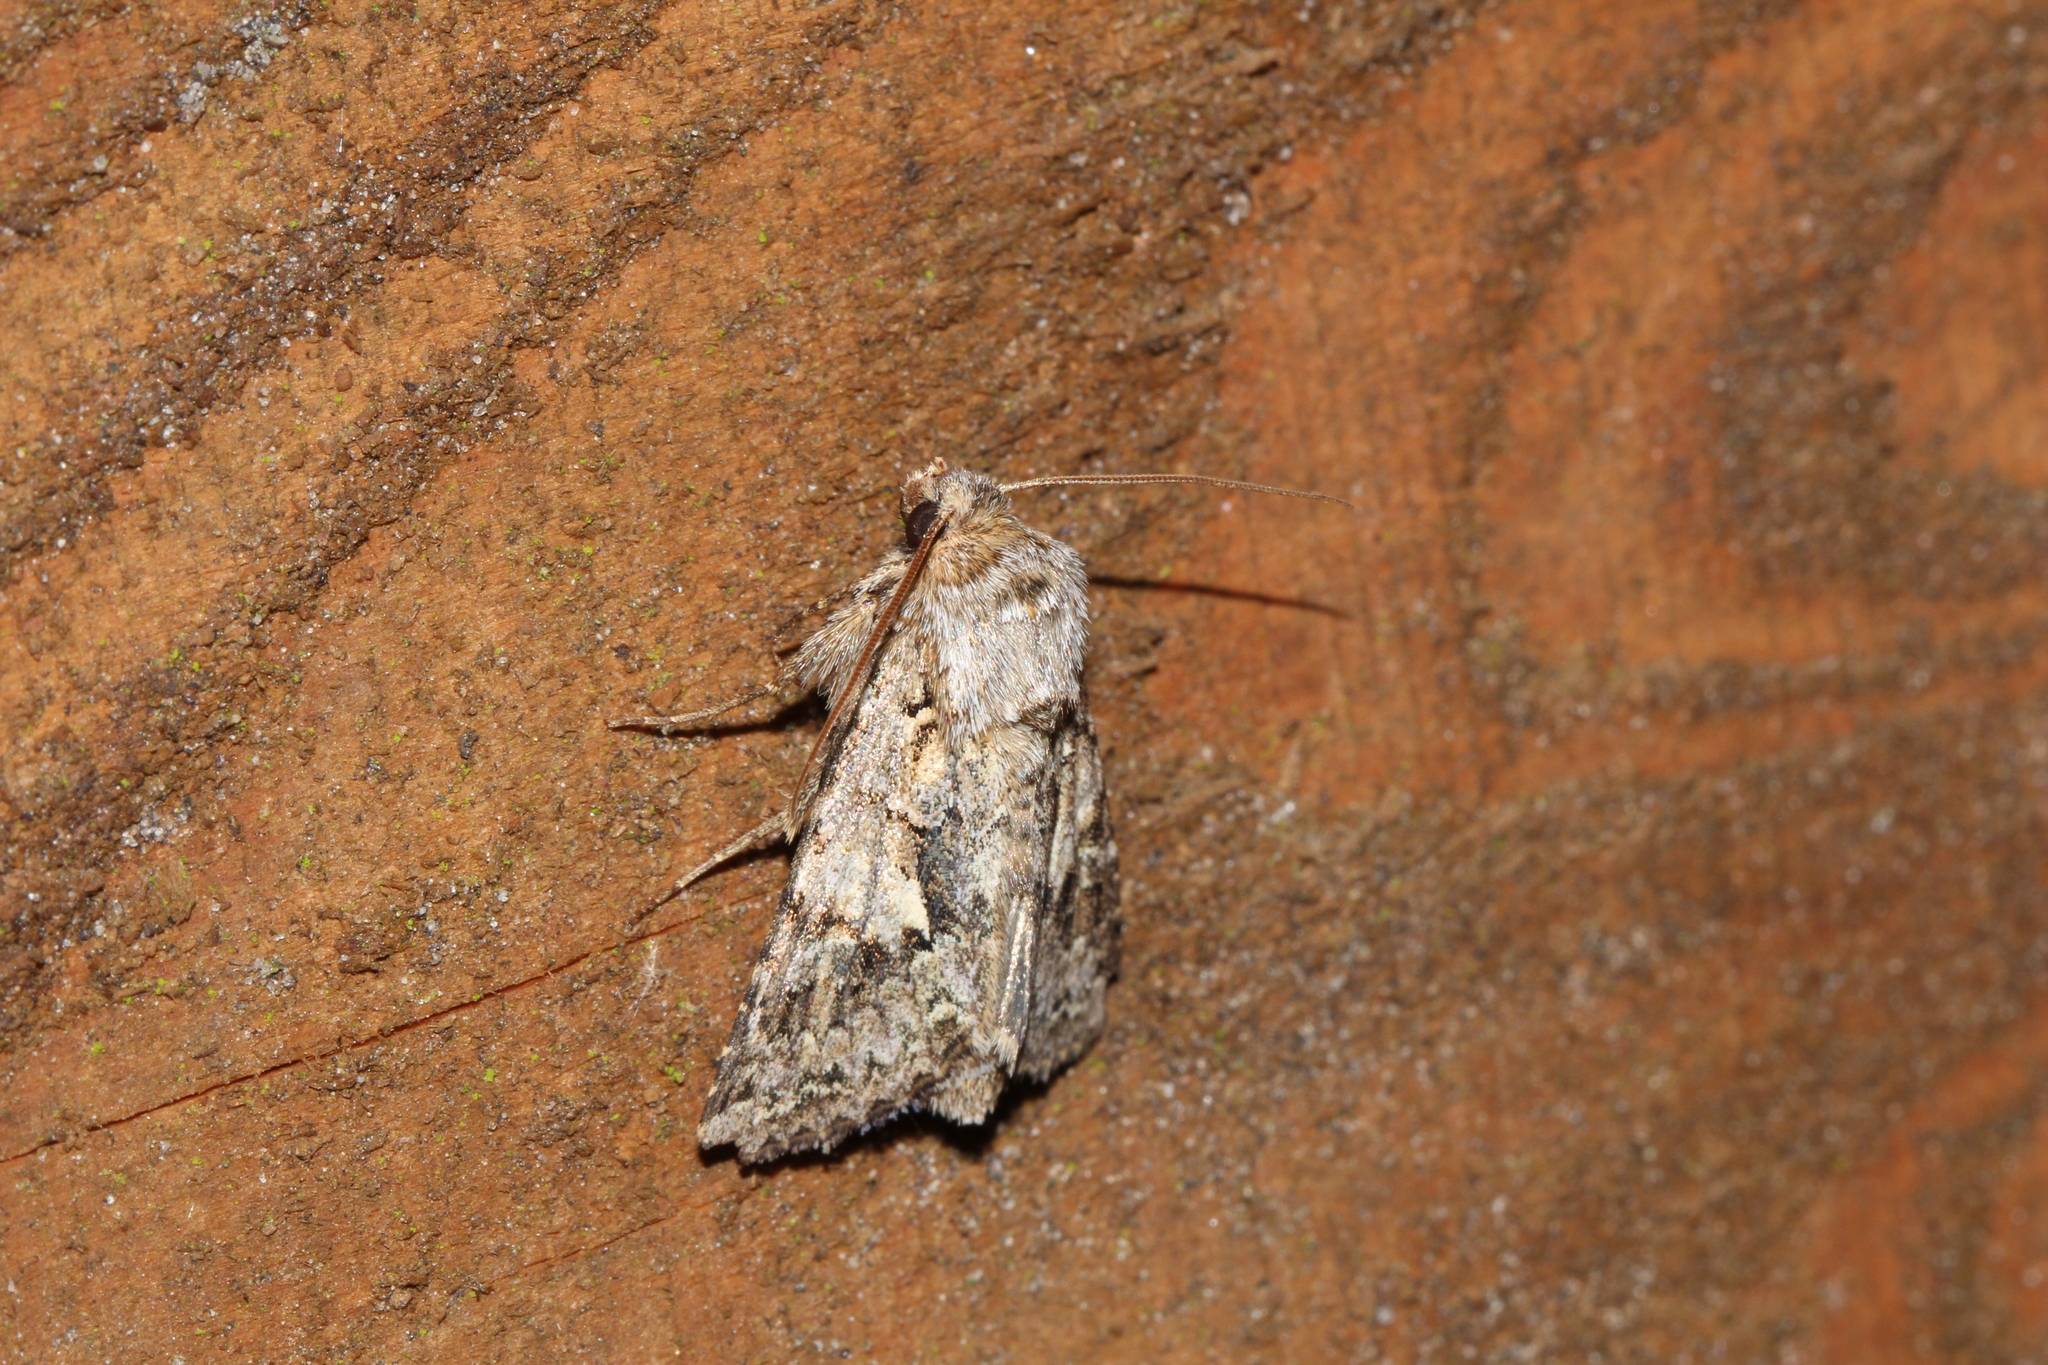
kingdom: Animalia
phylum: Arthropoda
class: Insecta
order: Lepidoptera
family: Noctuidae
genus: Hada
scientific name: Hada plebeja
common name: Shears
